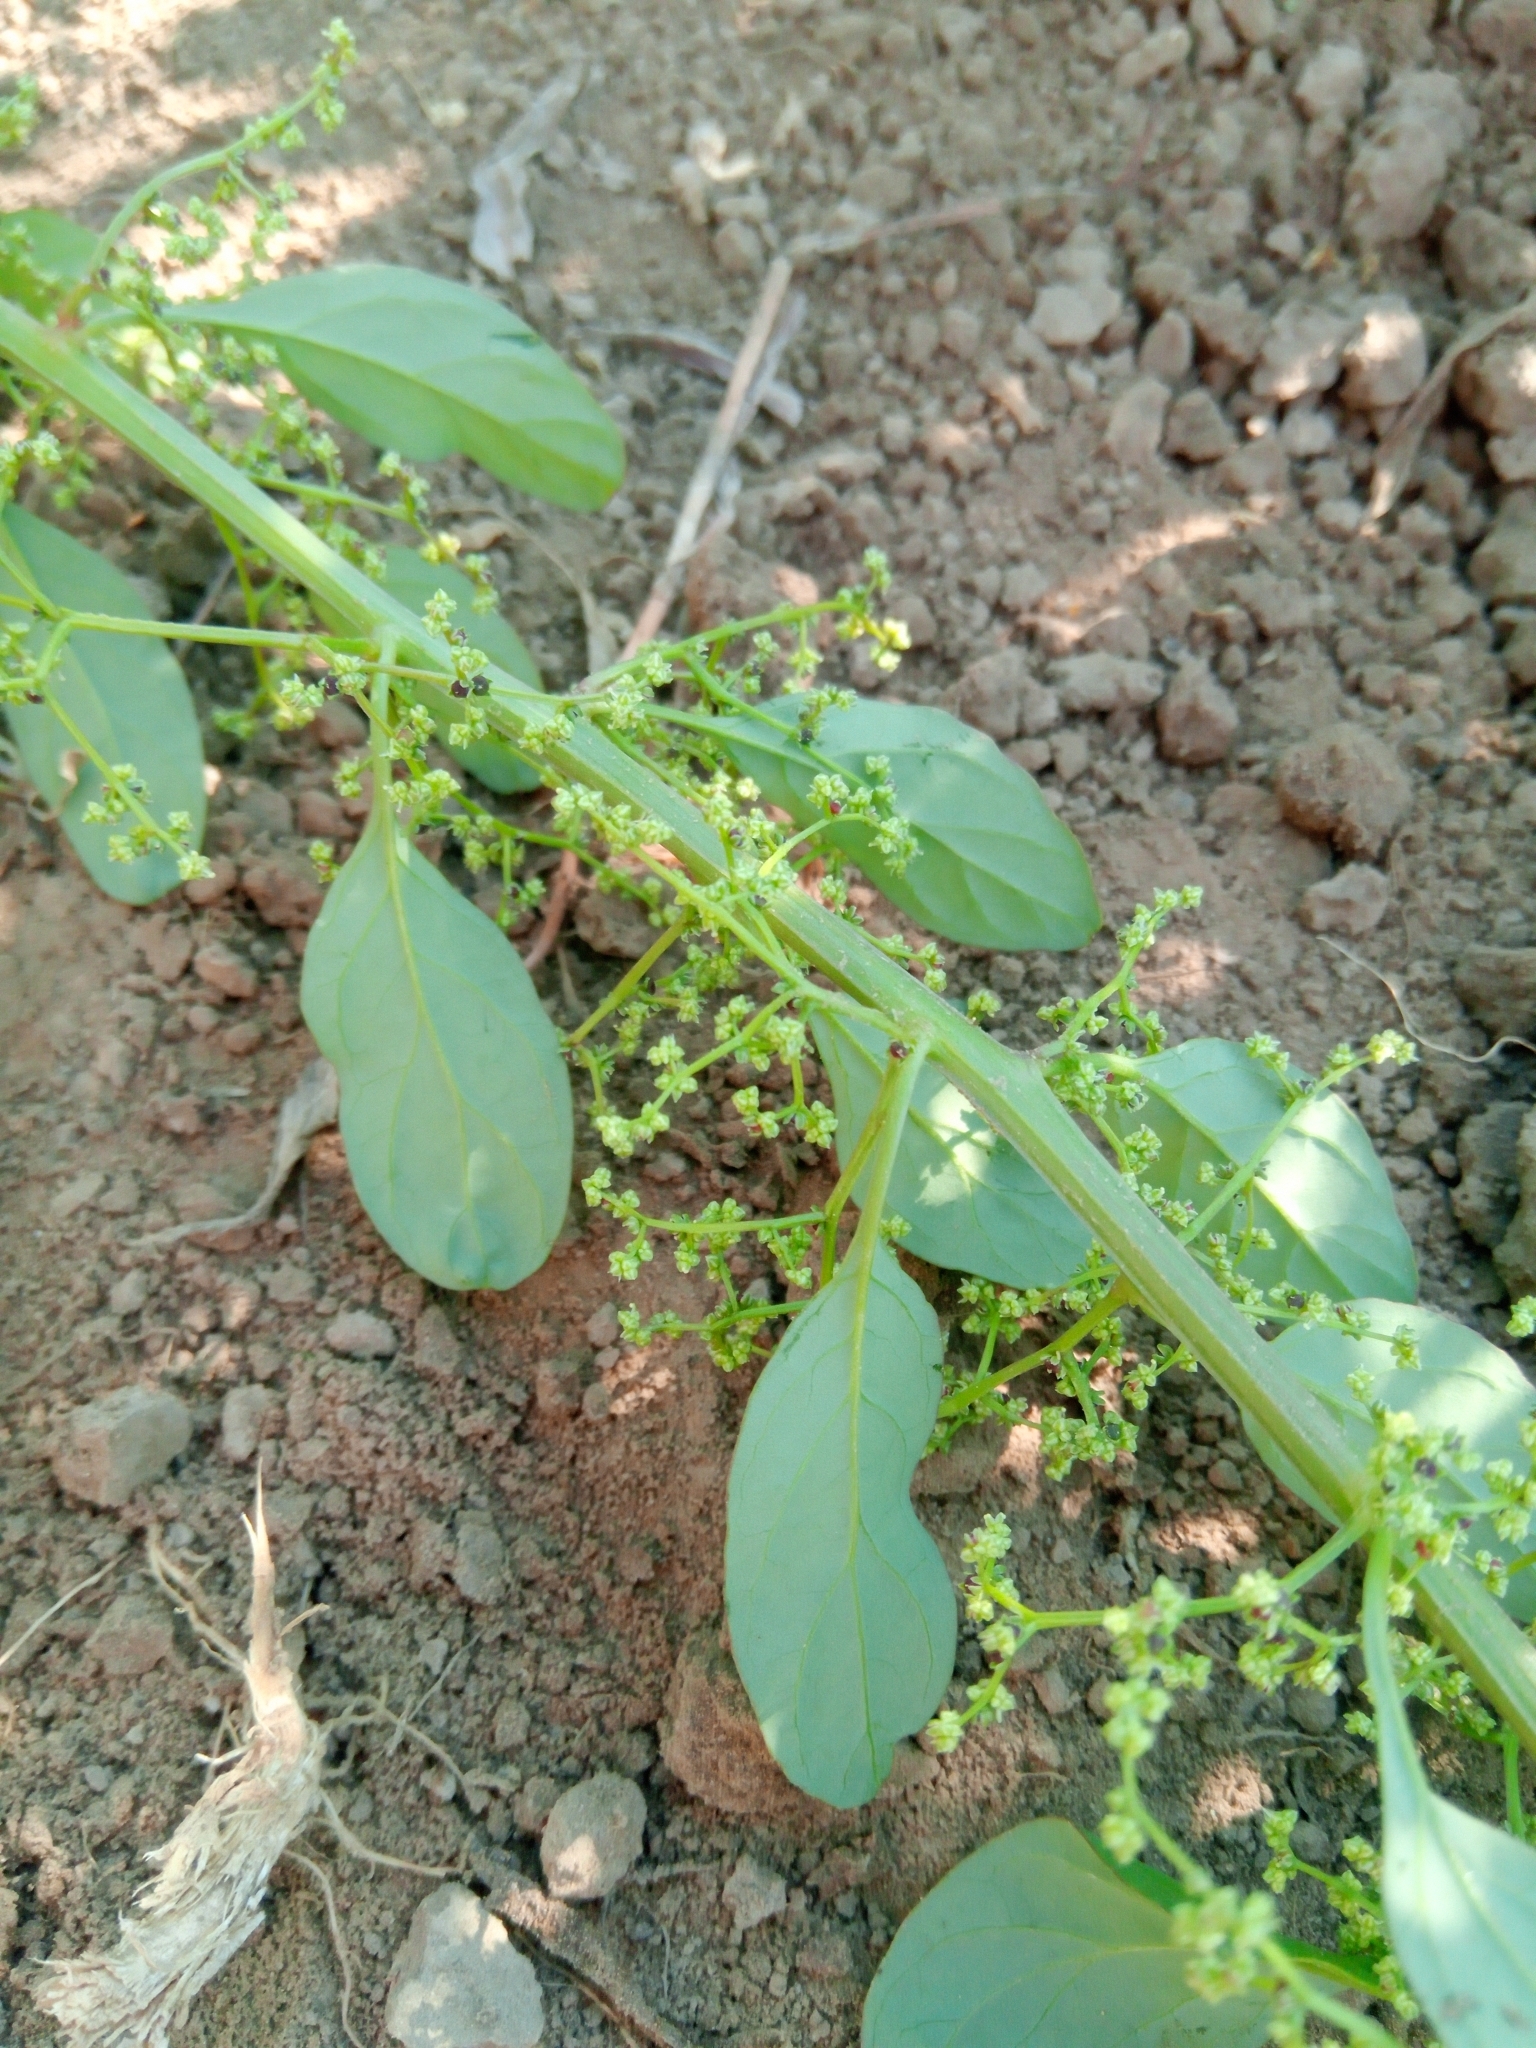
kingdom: Plantae
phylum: Tracheophyta
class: Magnoliopsida
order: Caryophyllales
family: Amaranthaceae
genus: Lipandra
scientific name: Lipandra polysperma
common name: Many-seed goosefoot
